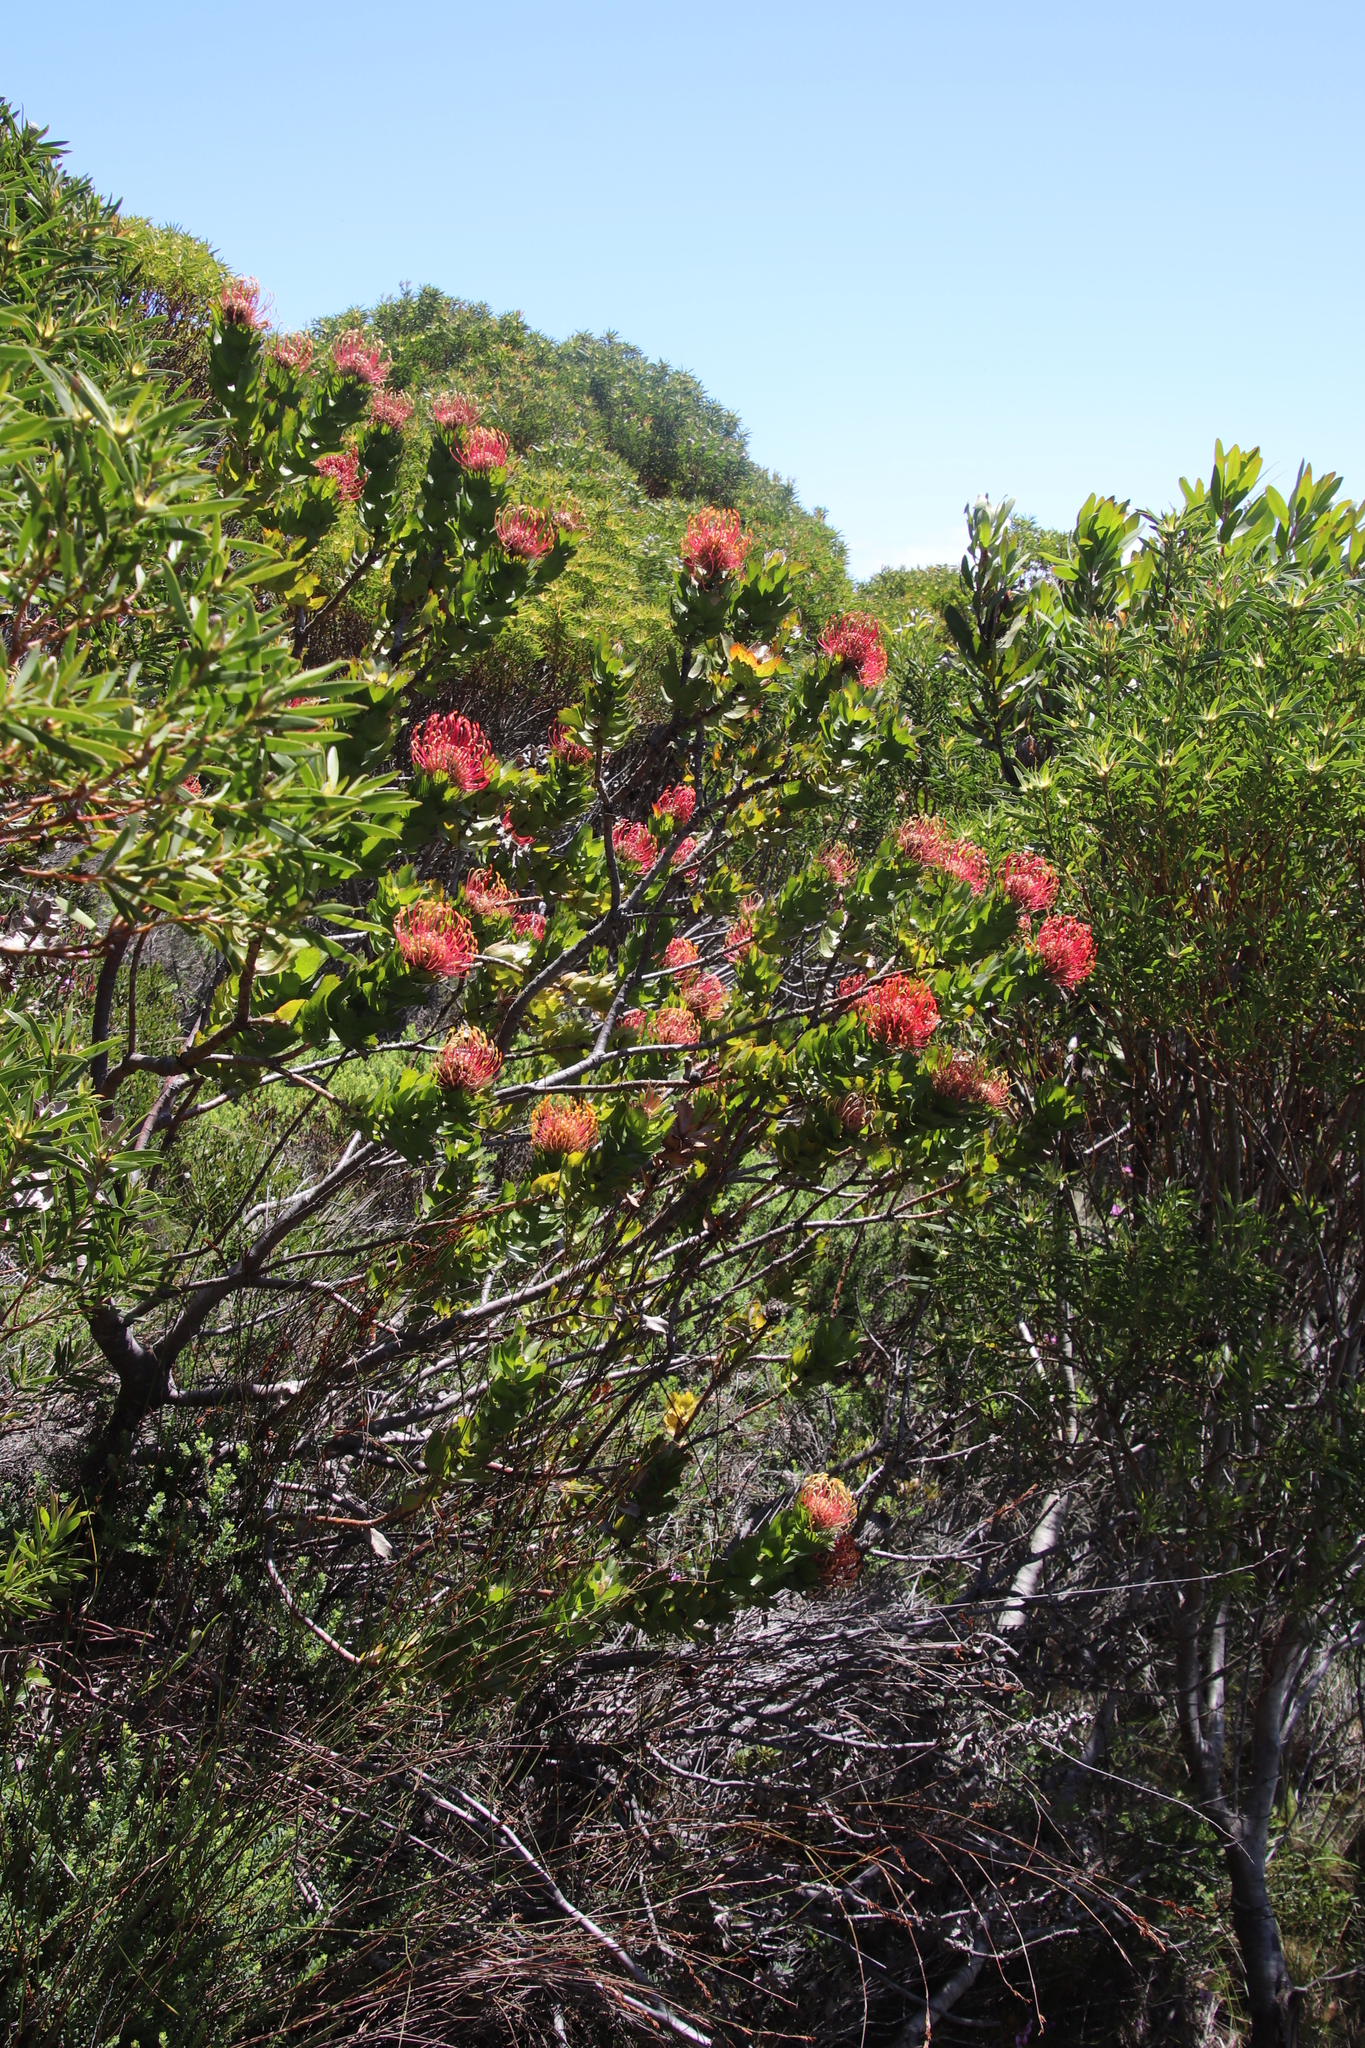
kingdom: Plantae
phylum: Tracheophyta
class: Magnoliopsida
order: Proteales
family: Proteaceae
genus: Leucospermum
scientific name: Leucospermum patersonii
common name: False tree pincushion
